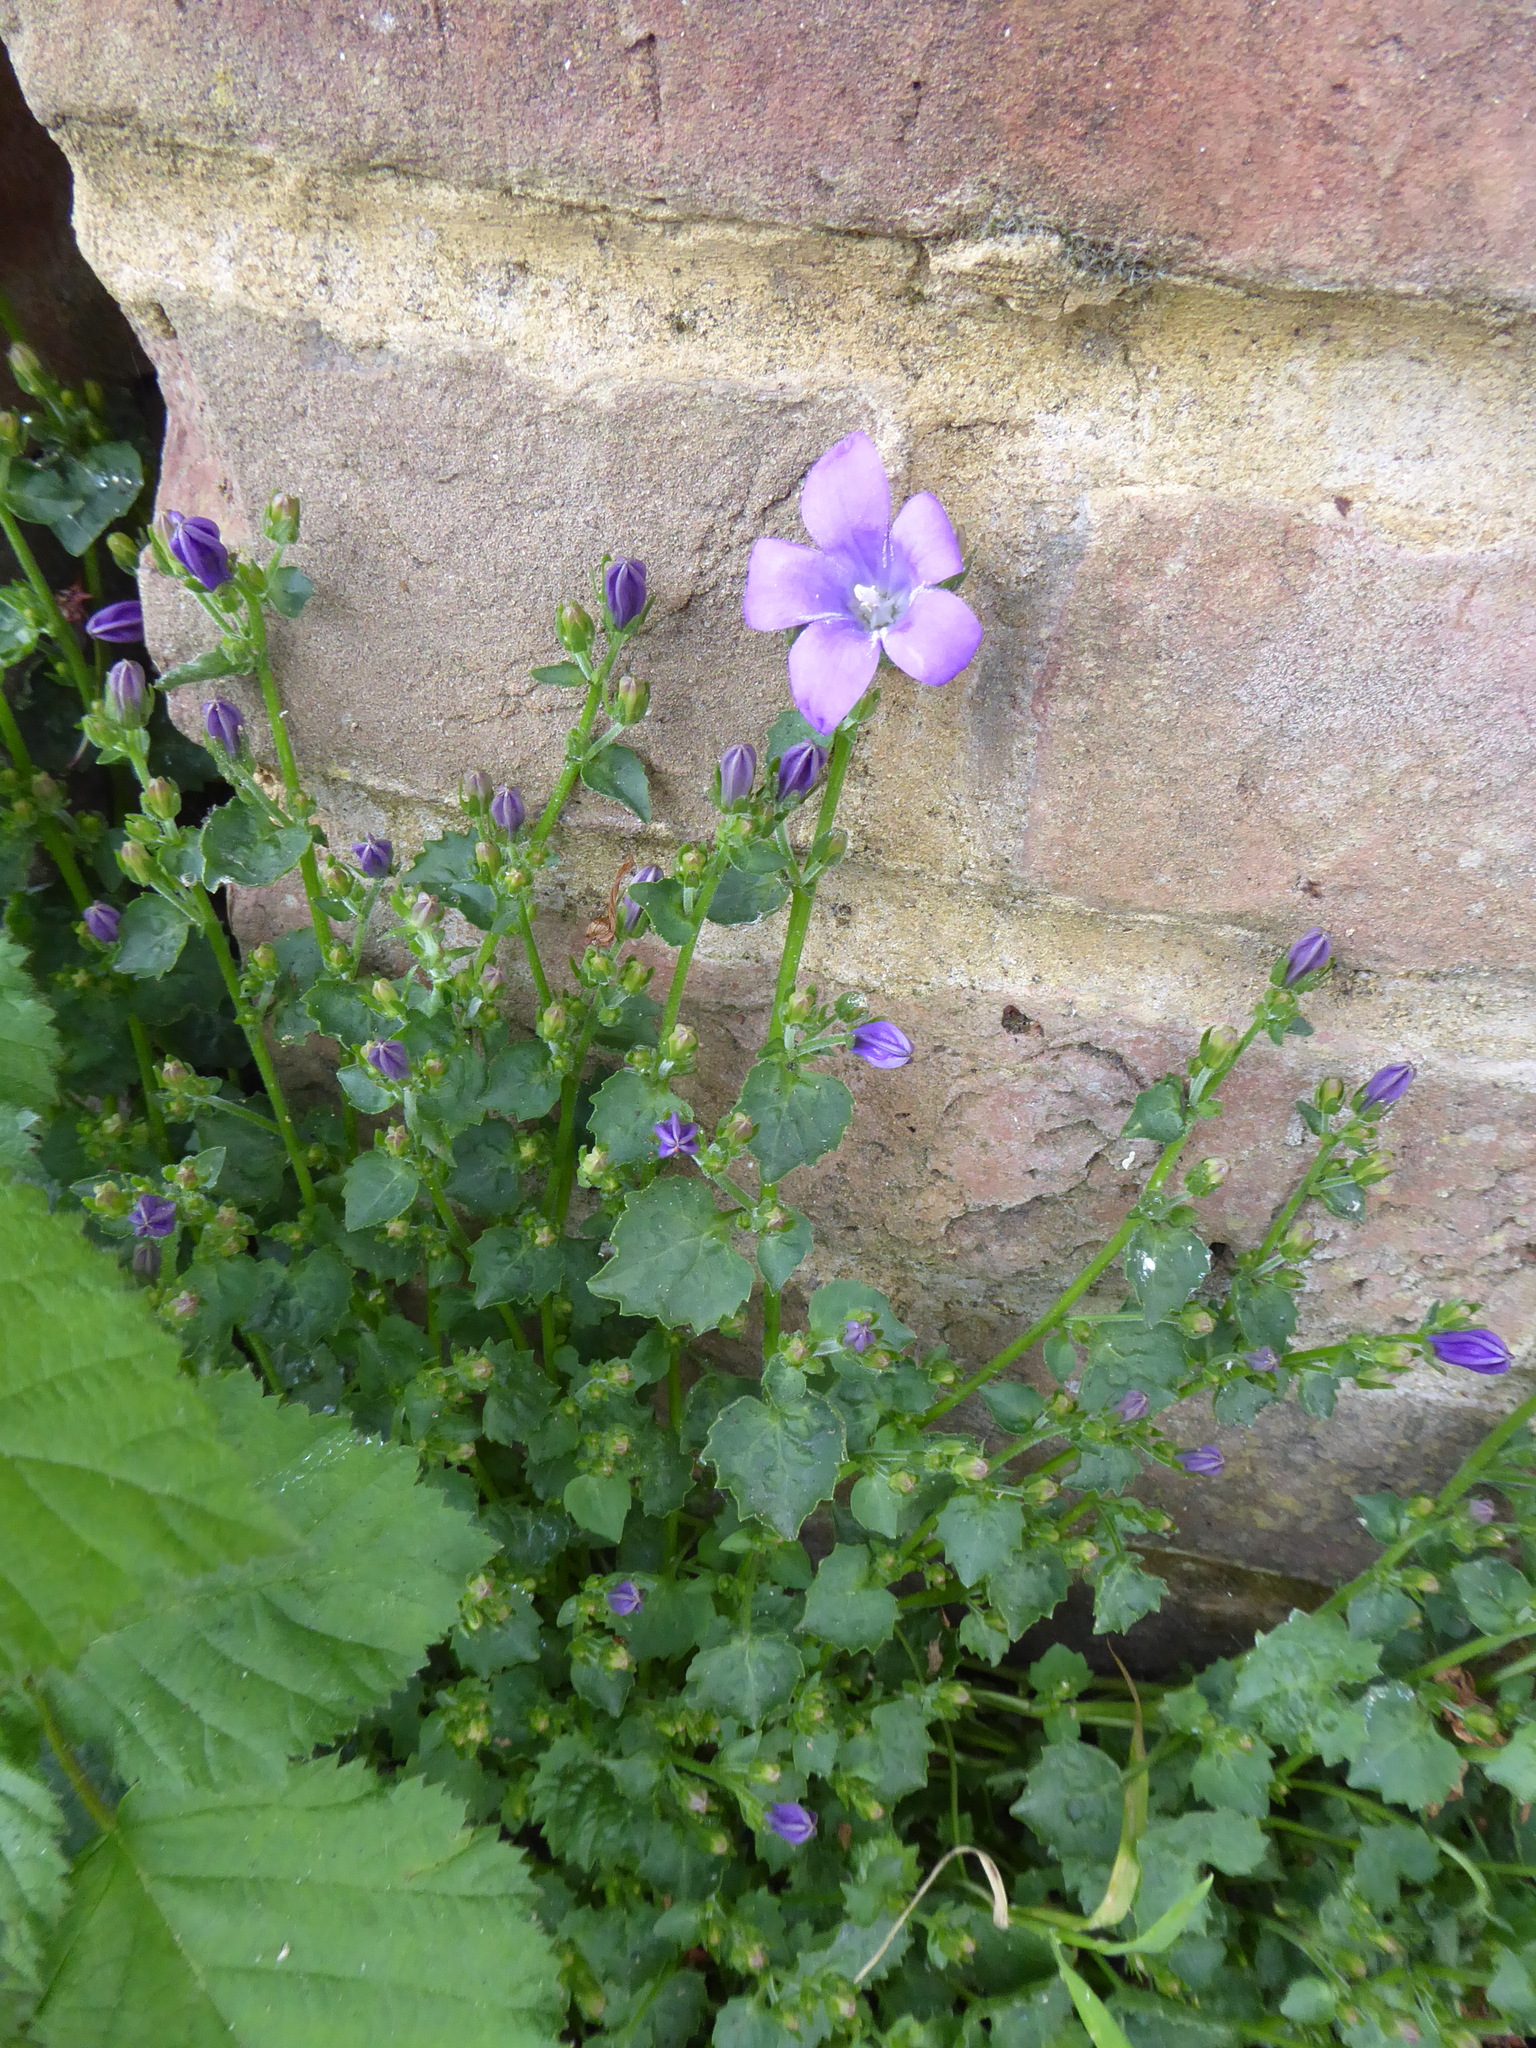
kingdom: Plantae
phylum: Tracheophyta
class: Magnoliopsida
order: Asterales
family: Campanulaceae
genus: Campanula
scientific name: Campanula portenschlagiana
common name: Adria bellflower
